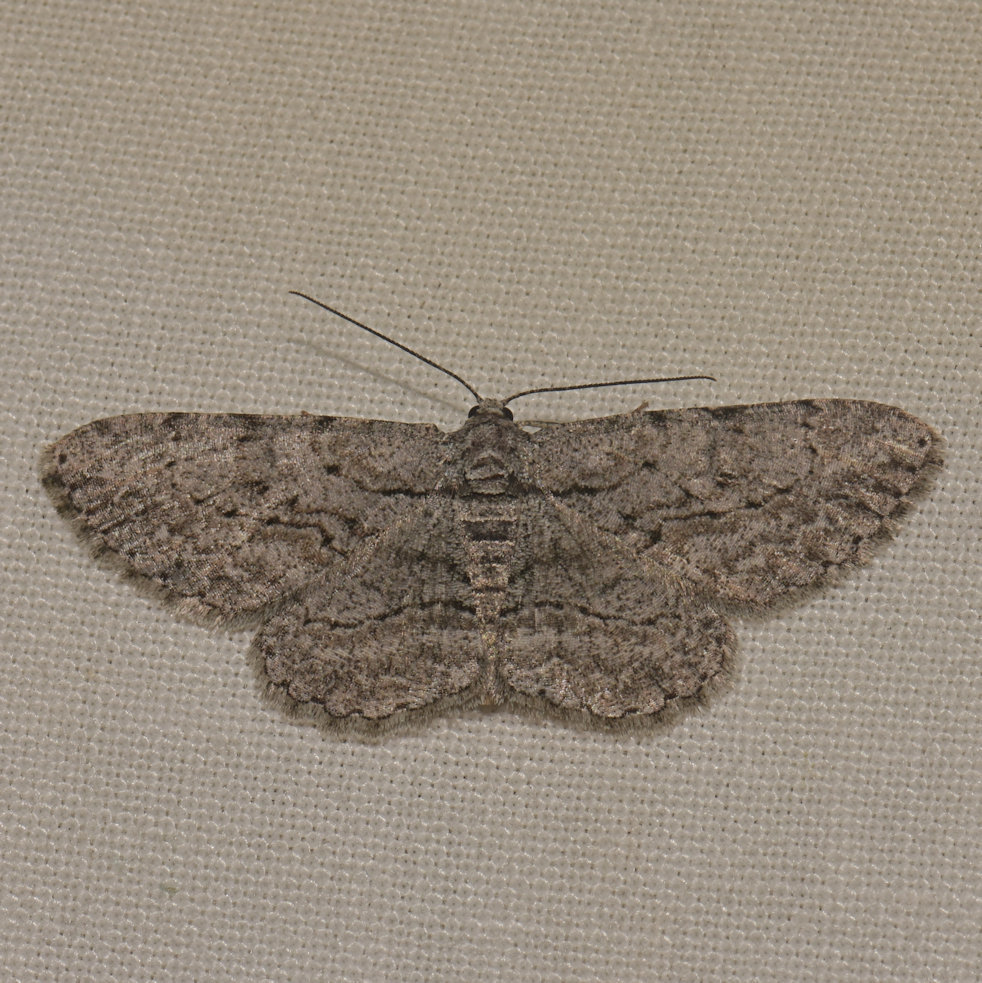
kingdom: Animalia
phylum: Arthropoda
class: Insecta
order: Lepidoptera
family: Geometridae
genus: Anavitrinella
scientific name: Anavitrinella pampinaria
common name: Common gray
